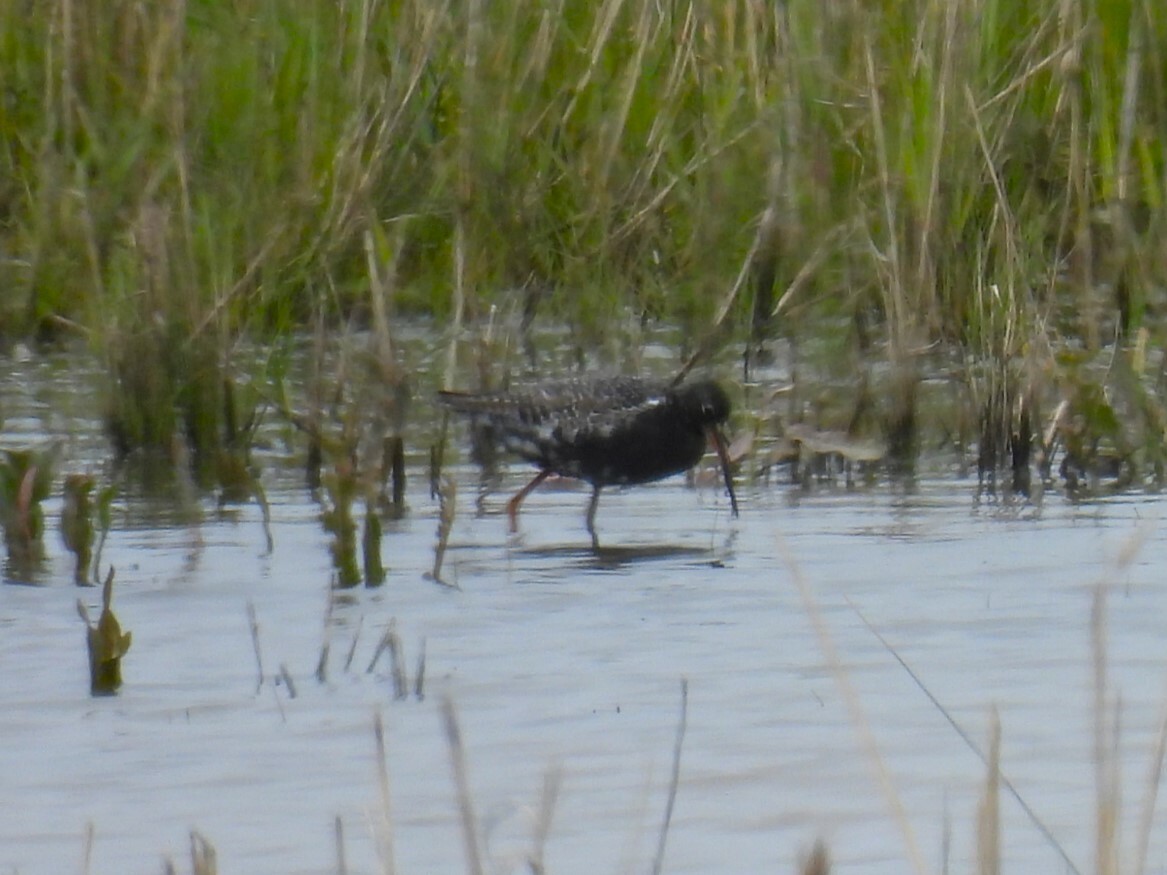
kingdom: Animalia
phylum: Chordata
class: Aves
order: Charadriiformes
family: Scolopacidae
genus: Tringa
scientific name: Tringa erythropus
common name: Spotted redshank
